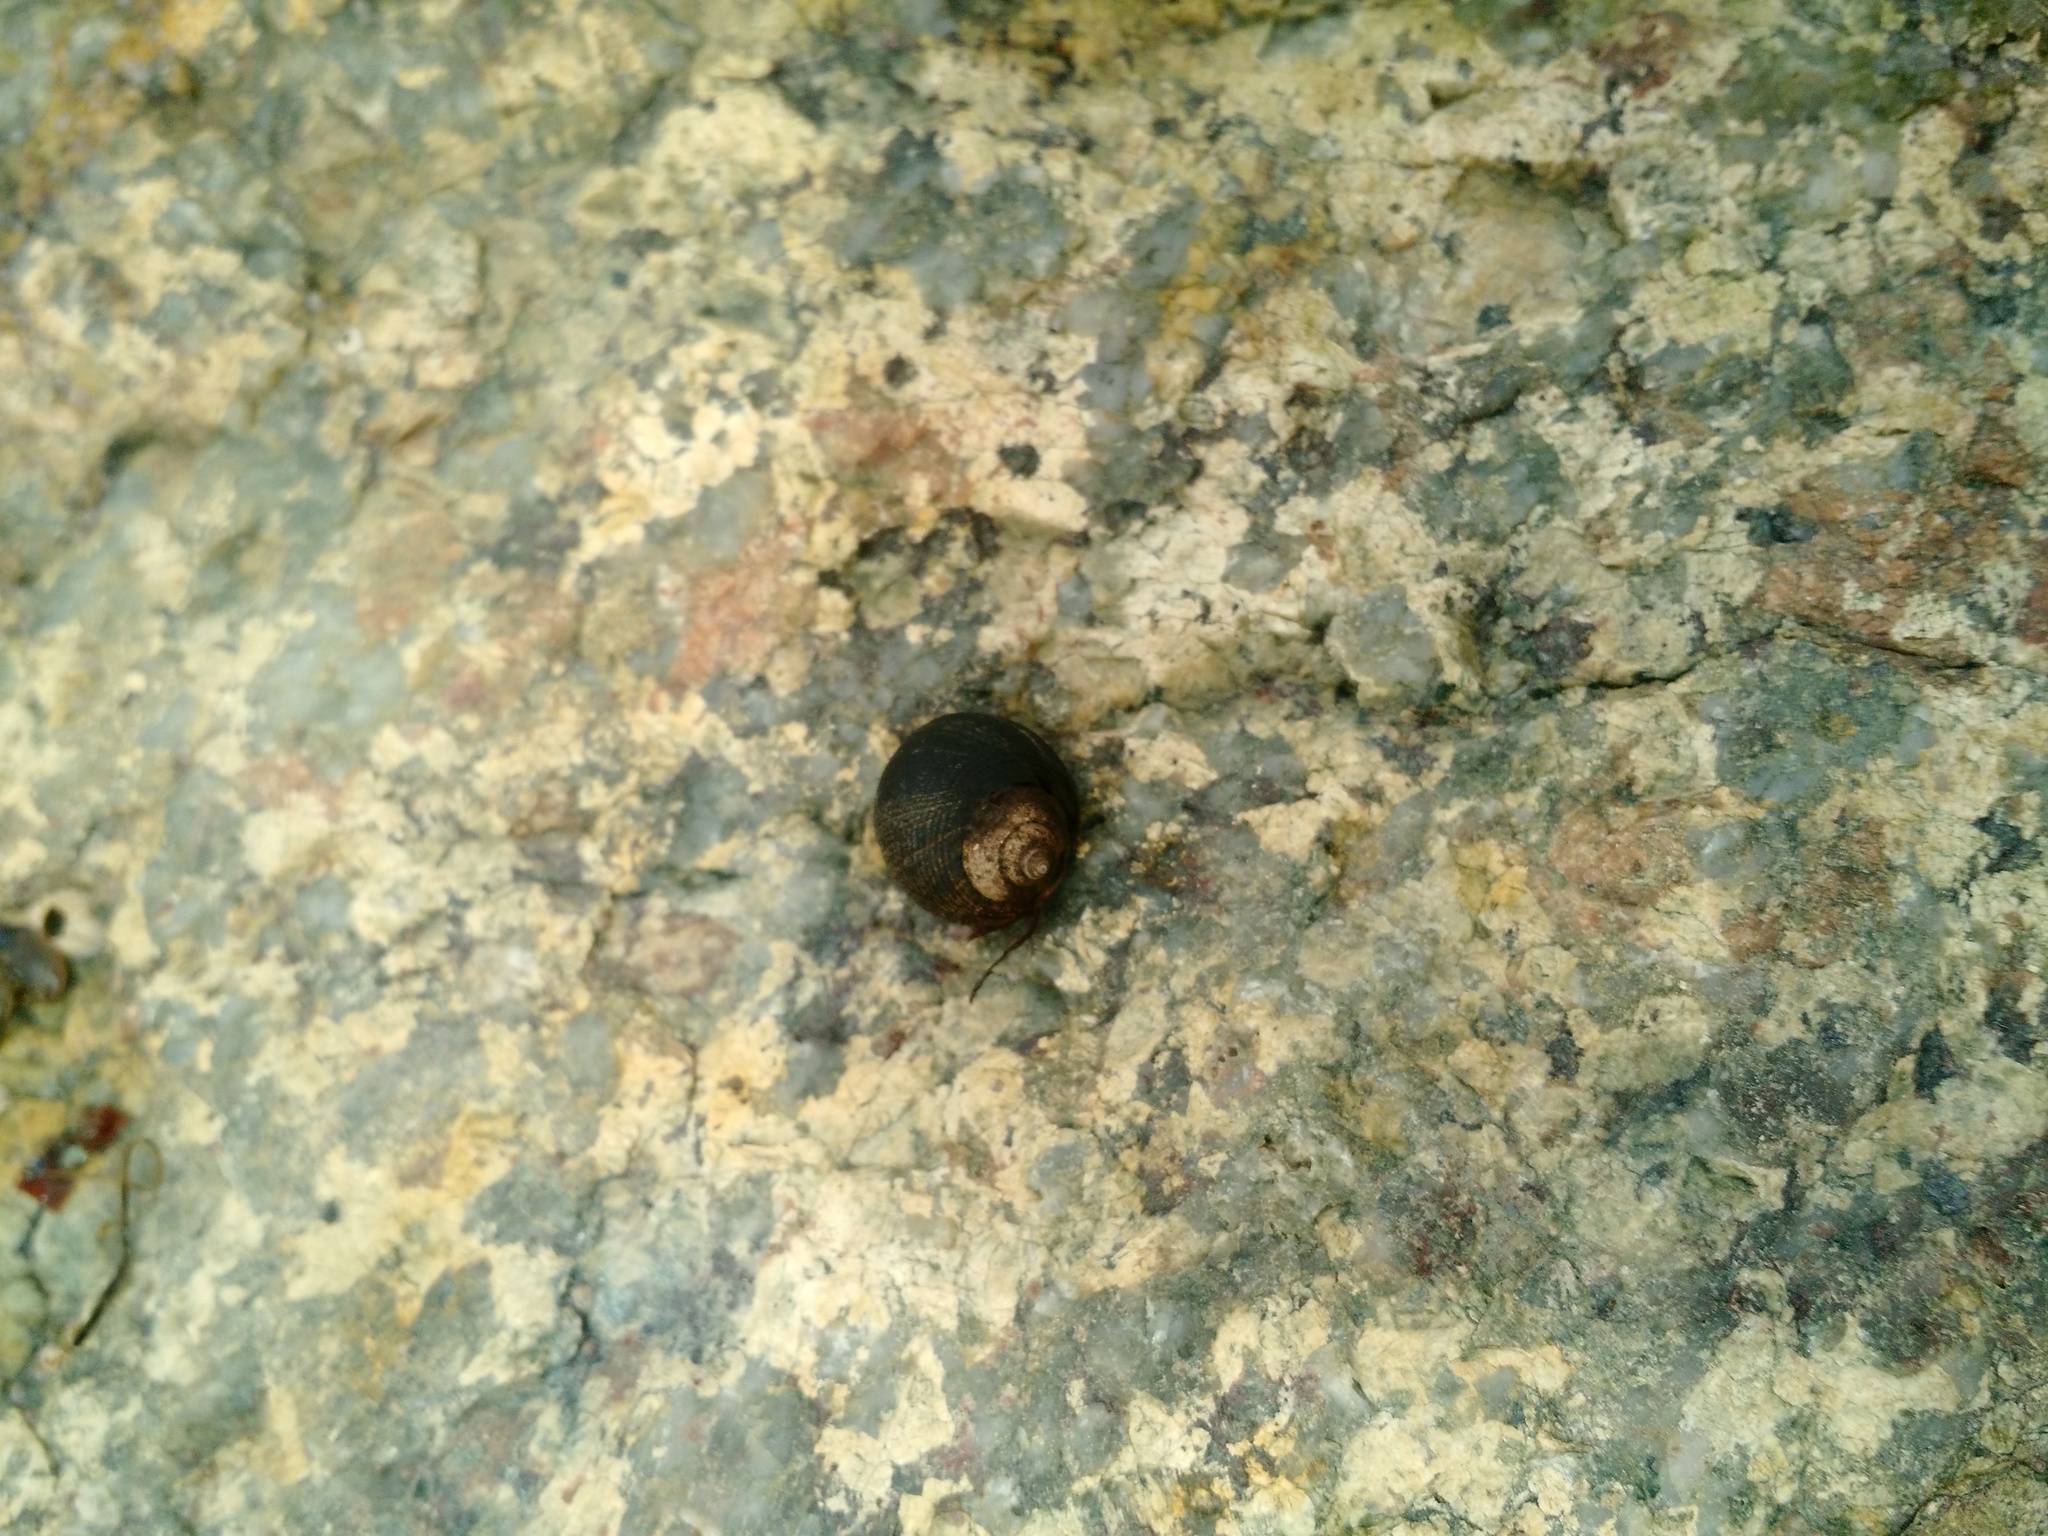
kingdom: Animalia
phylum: Mollusca
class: Gastropoda
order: Littorinimorpha
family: Littorinidae
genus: Littorina
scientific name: Littorina littorea
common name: Common periwinkle
